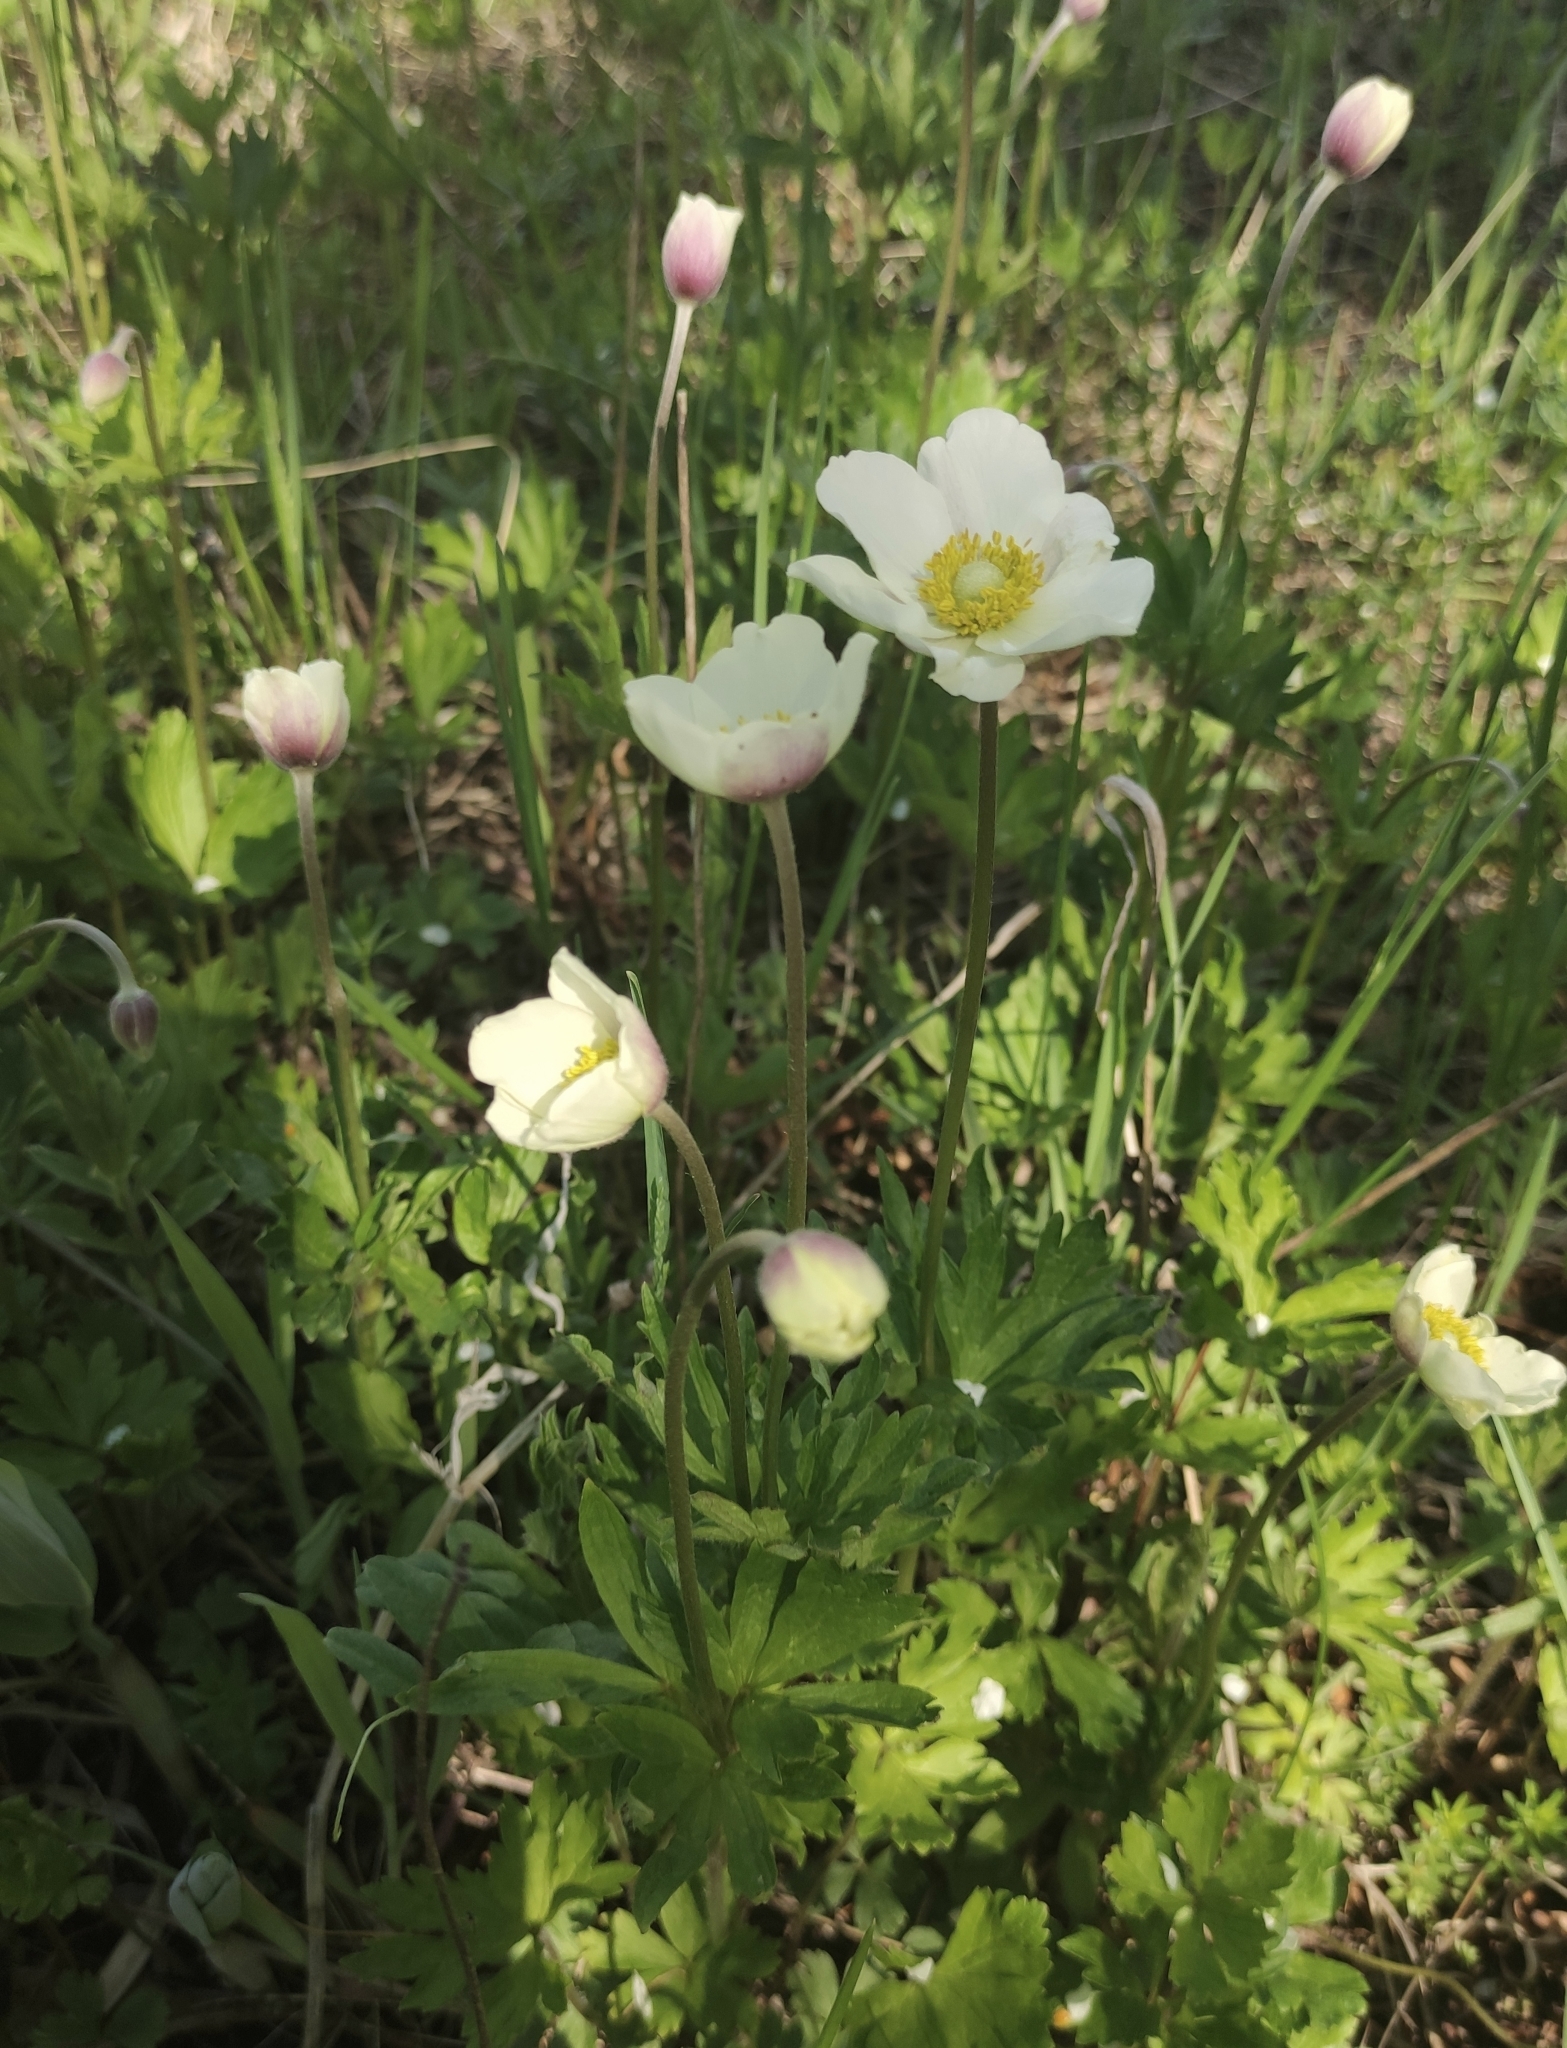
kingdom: Plantae
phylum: Tracheophyta
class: Magnoliopsida
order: Ranunculales
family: Ranunculaceae
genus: Anemone
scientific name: Anemone sylvestris
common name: Snowdrop anemone
